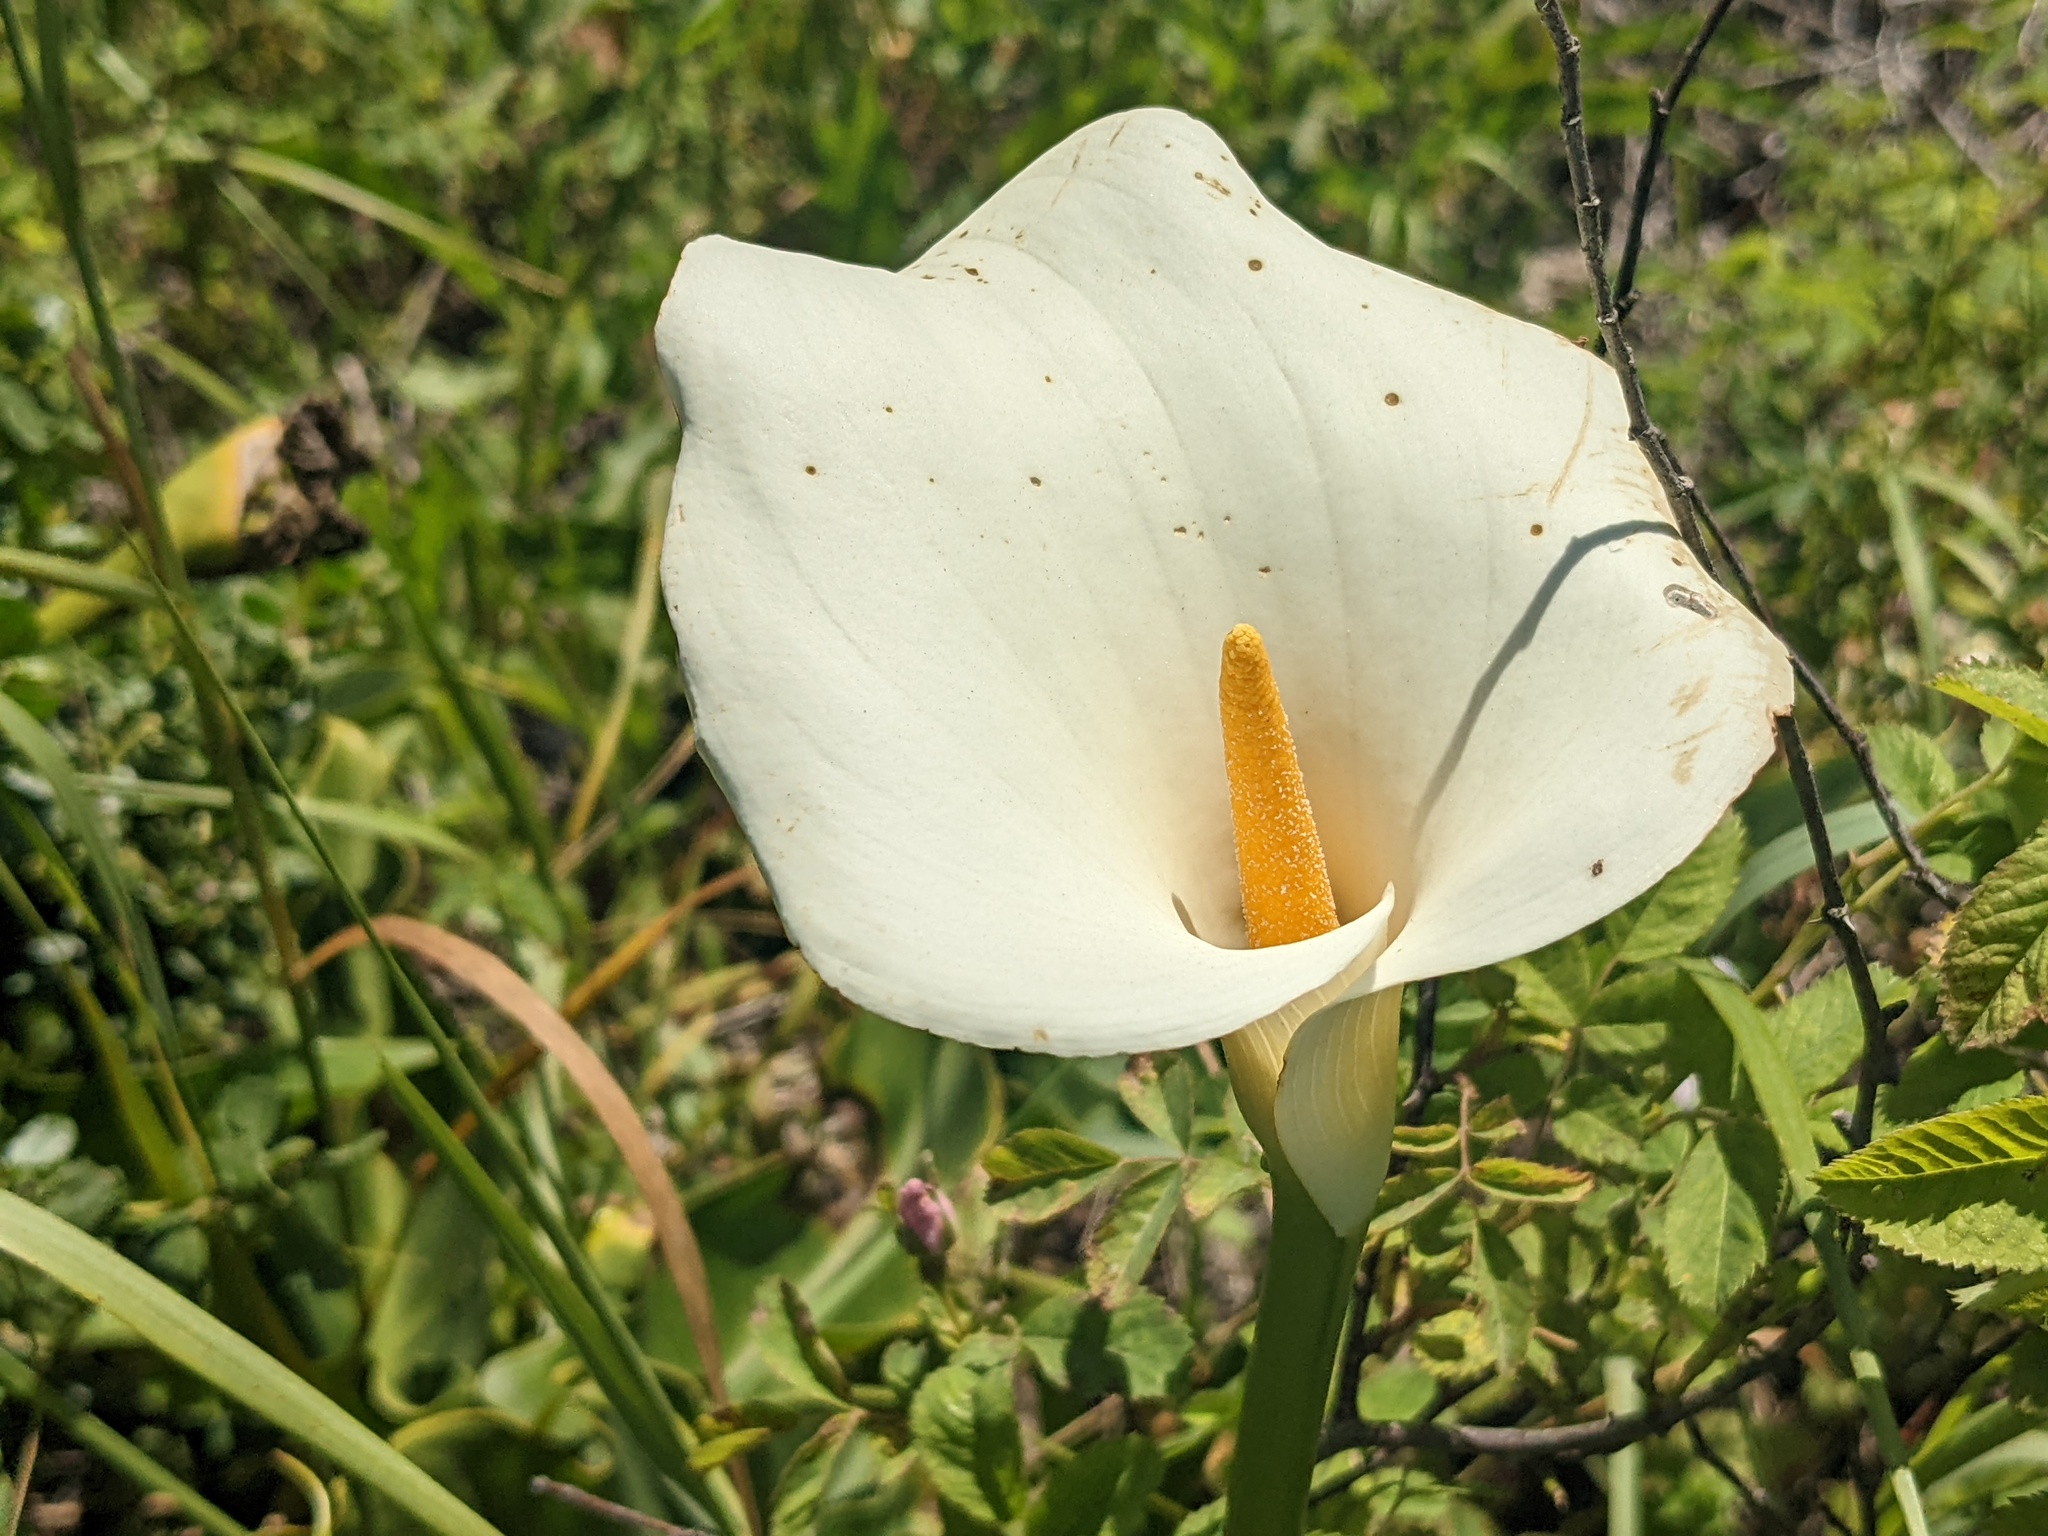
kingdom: Plantae
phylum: Tracheophyta
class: Liliopsida
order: Alismatales
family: Araceae
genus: Zantedeschia
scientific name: Zantedeschia aethiopica
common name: Altar-lily
